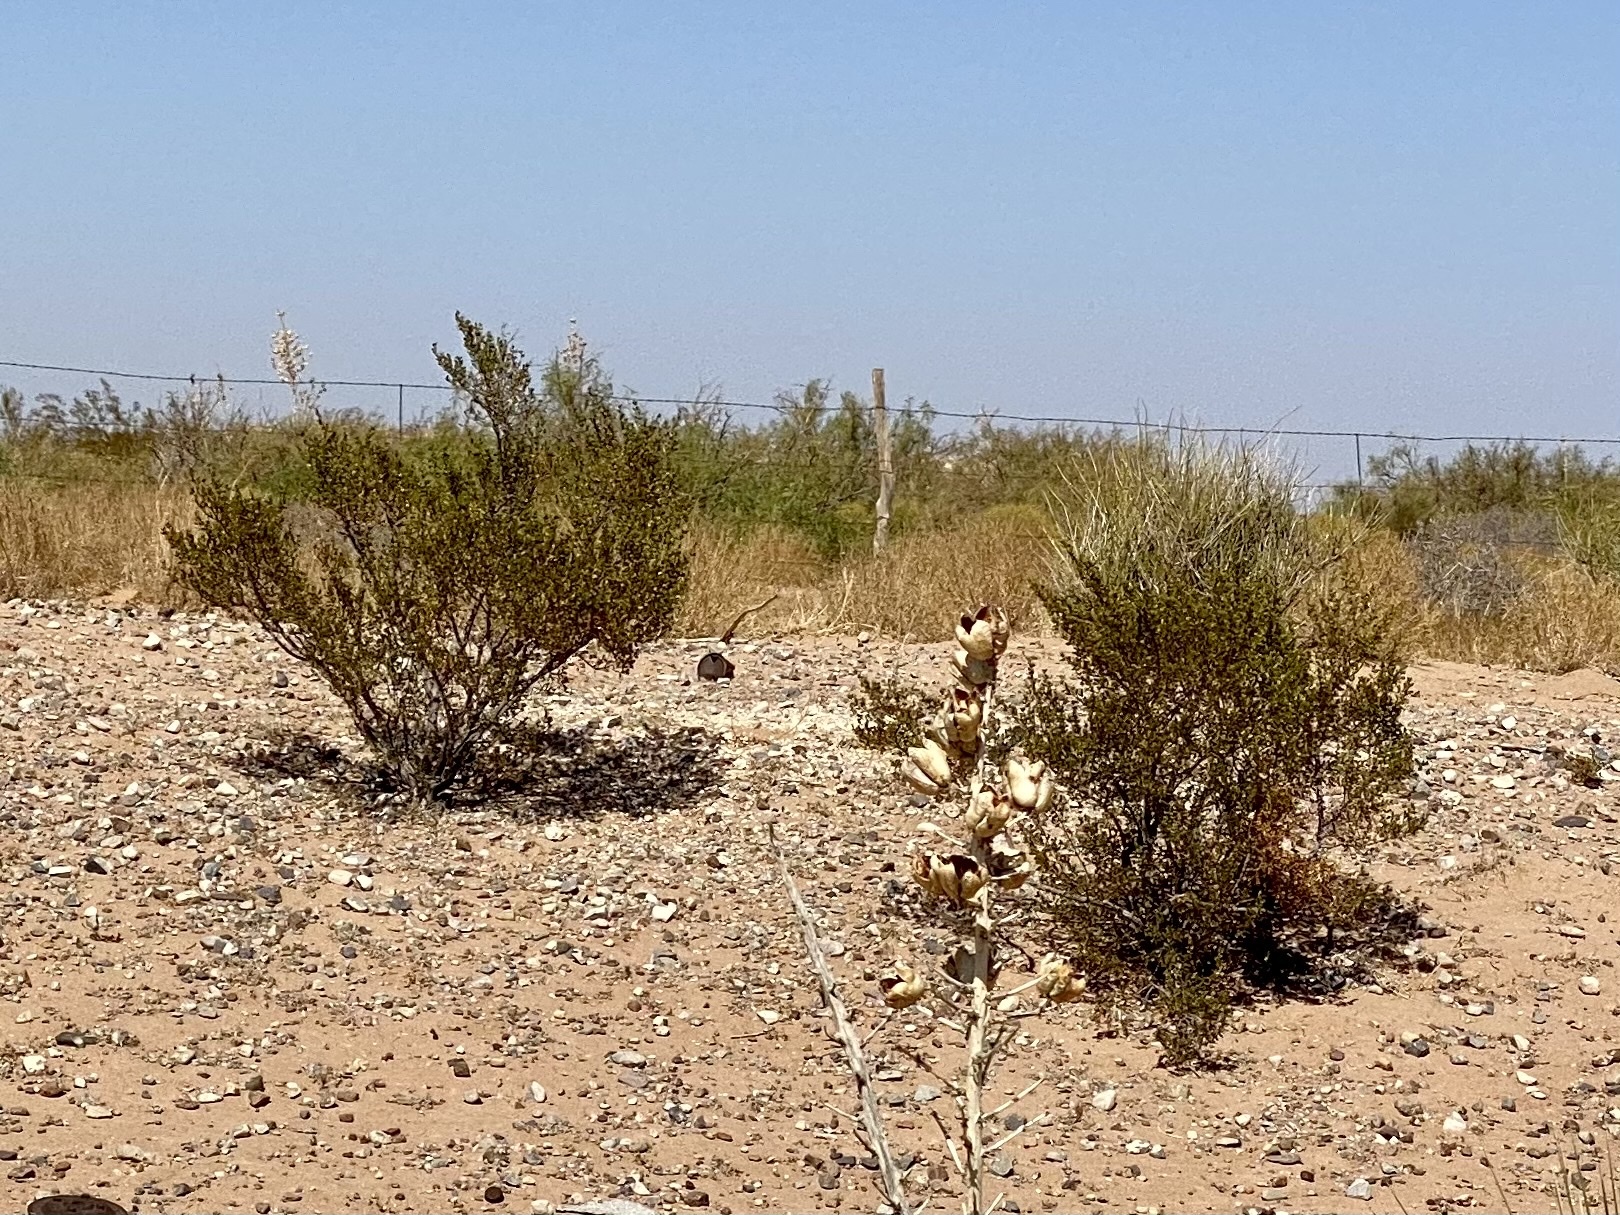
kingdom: Plantae
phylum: Tracheophyta
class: Magnoliopsida
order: Zygophyllales
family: Zygophyllaceae
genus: Larrea
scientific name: Larrea tridentata
